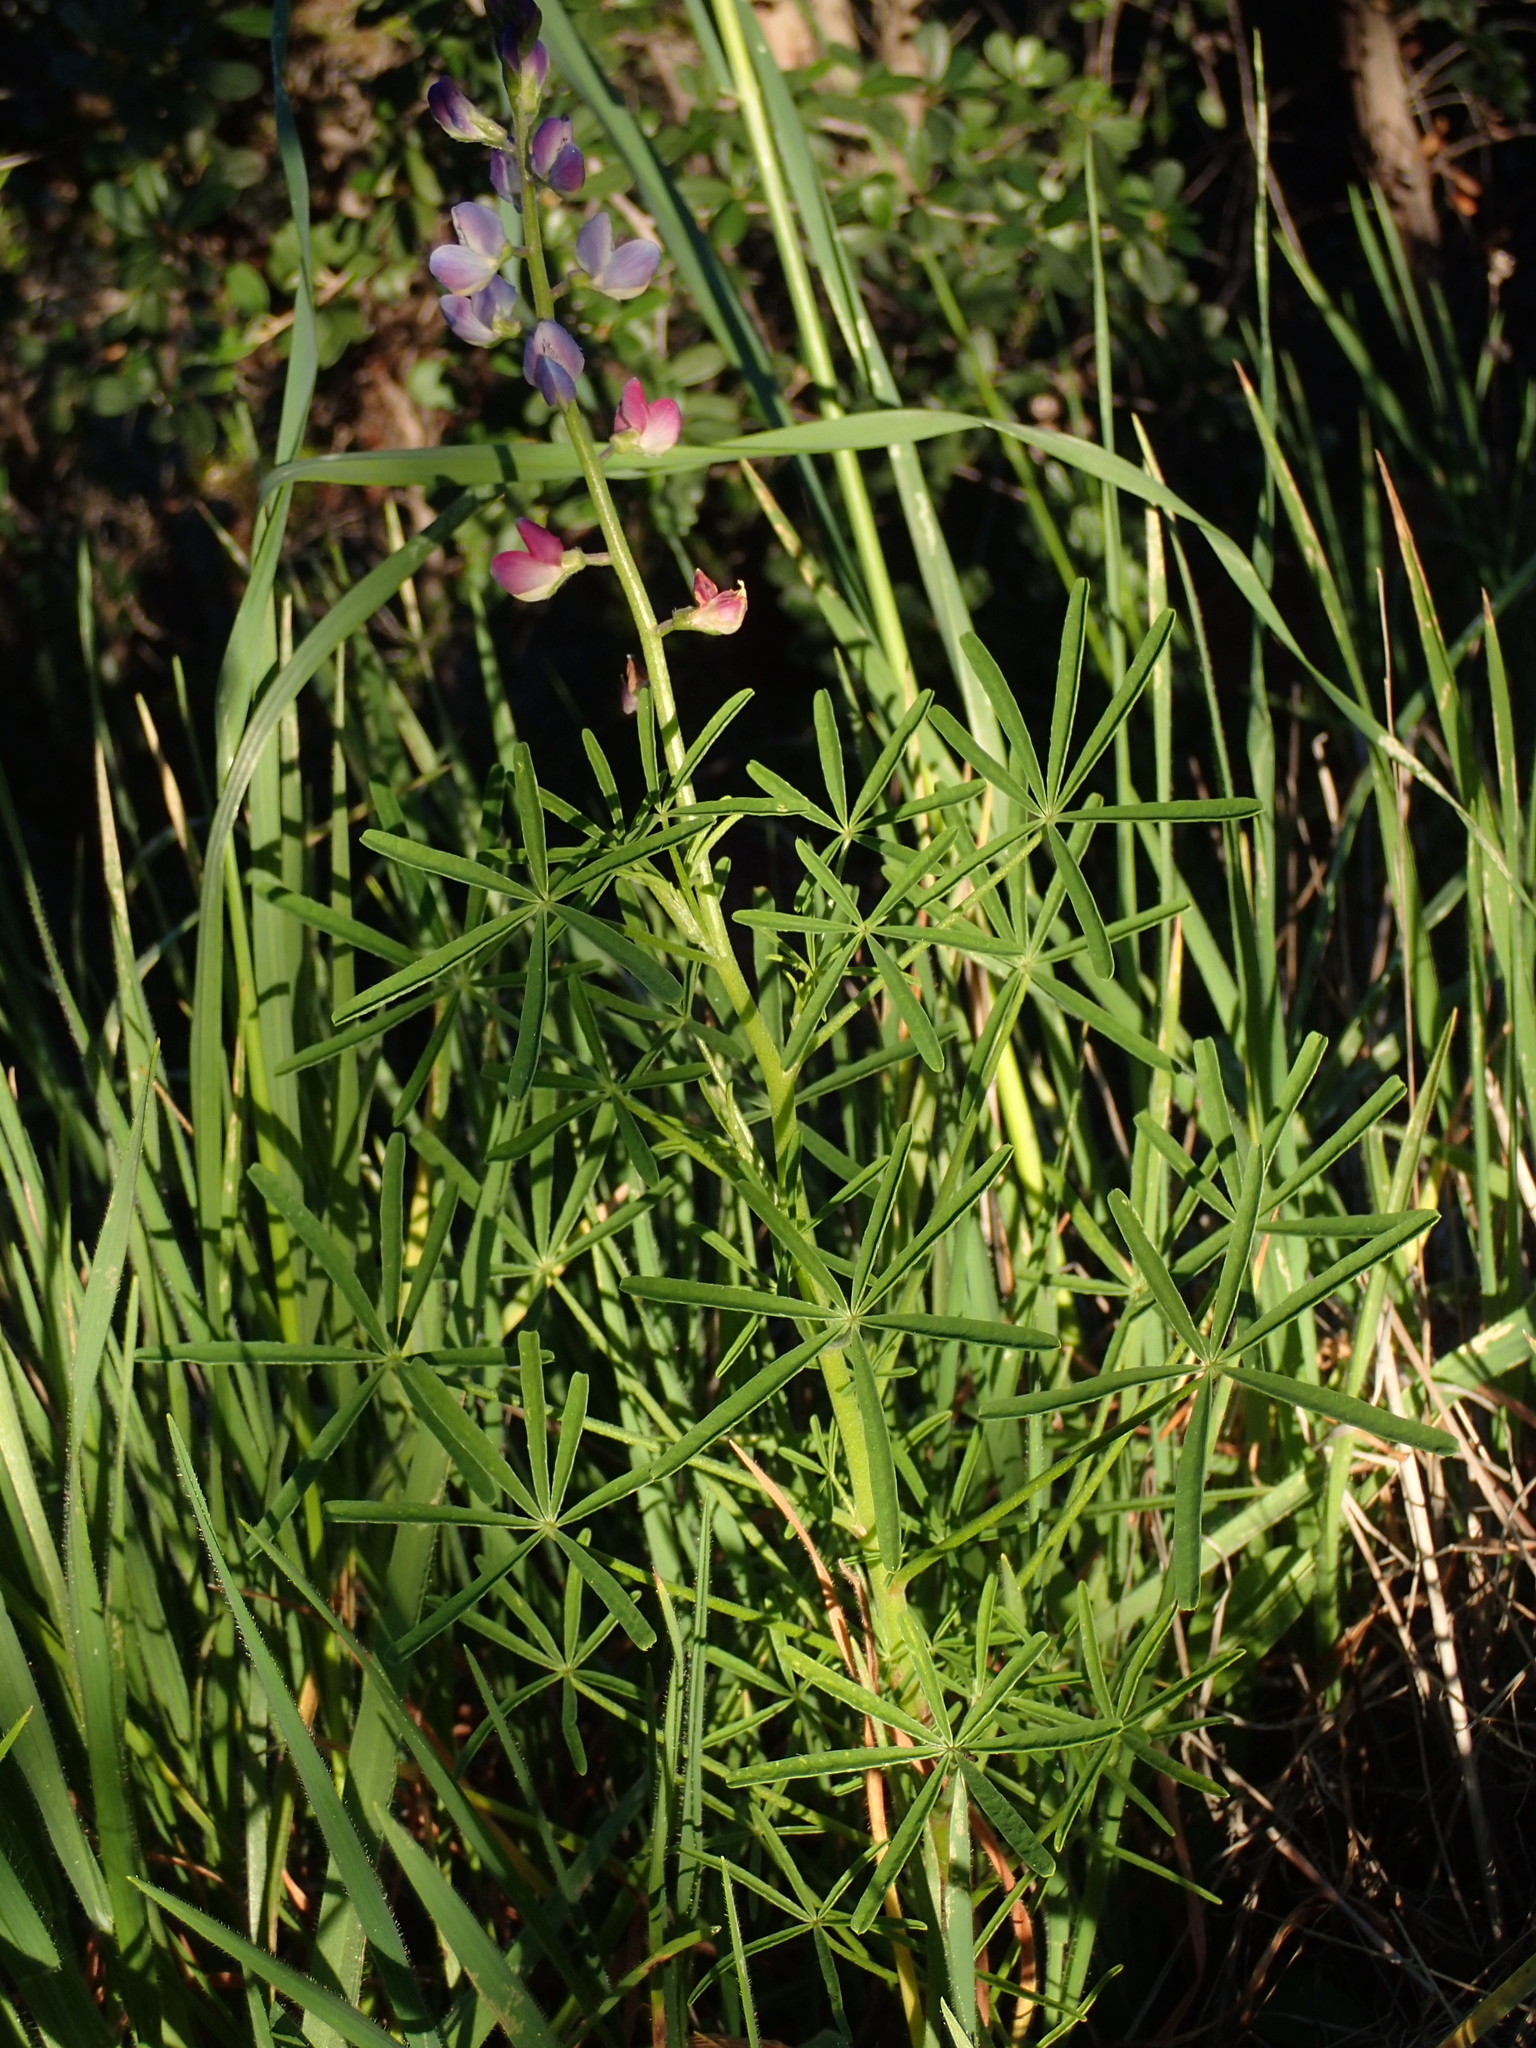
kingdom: Plantae
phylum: Tracheophyta
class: Magnoliopsida
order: Fabales
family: Fabaceae
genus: Lupinus
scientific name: Lupinus truncatus
